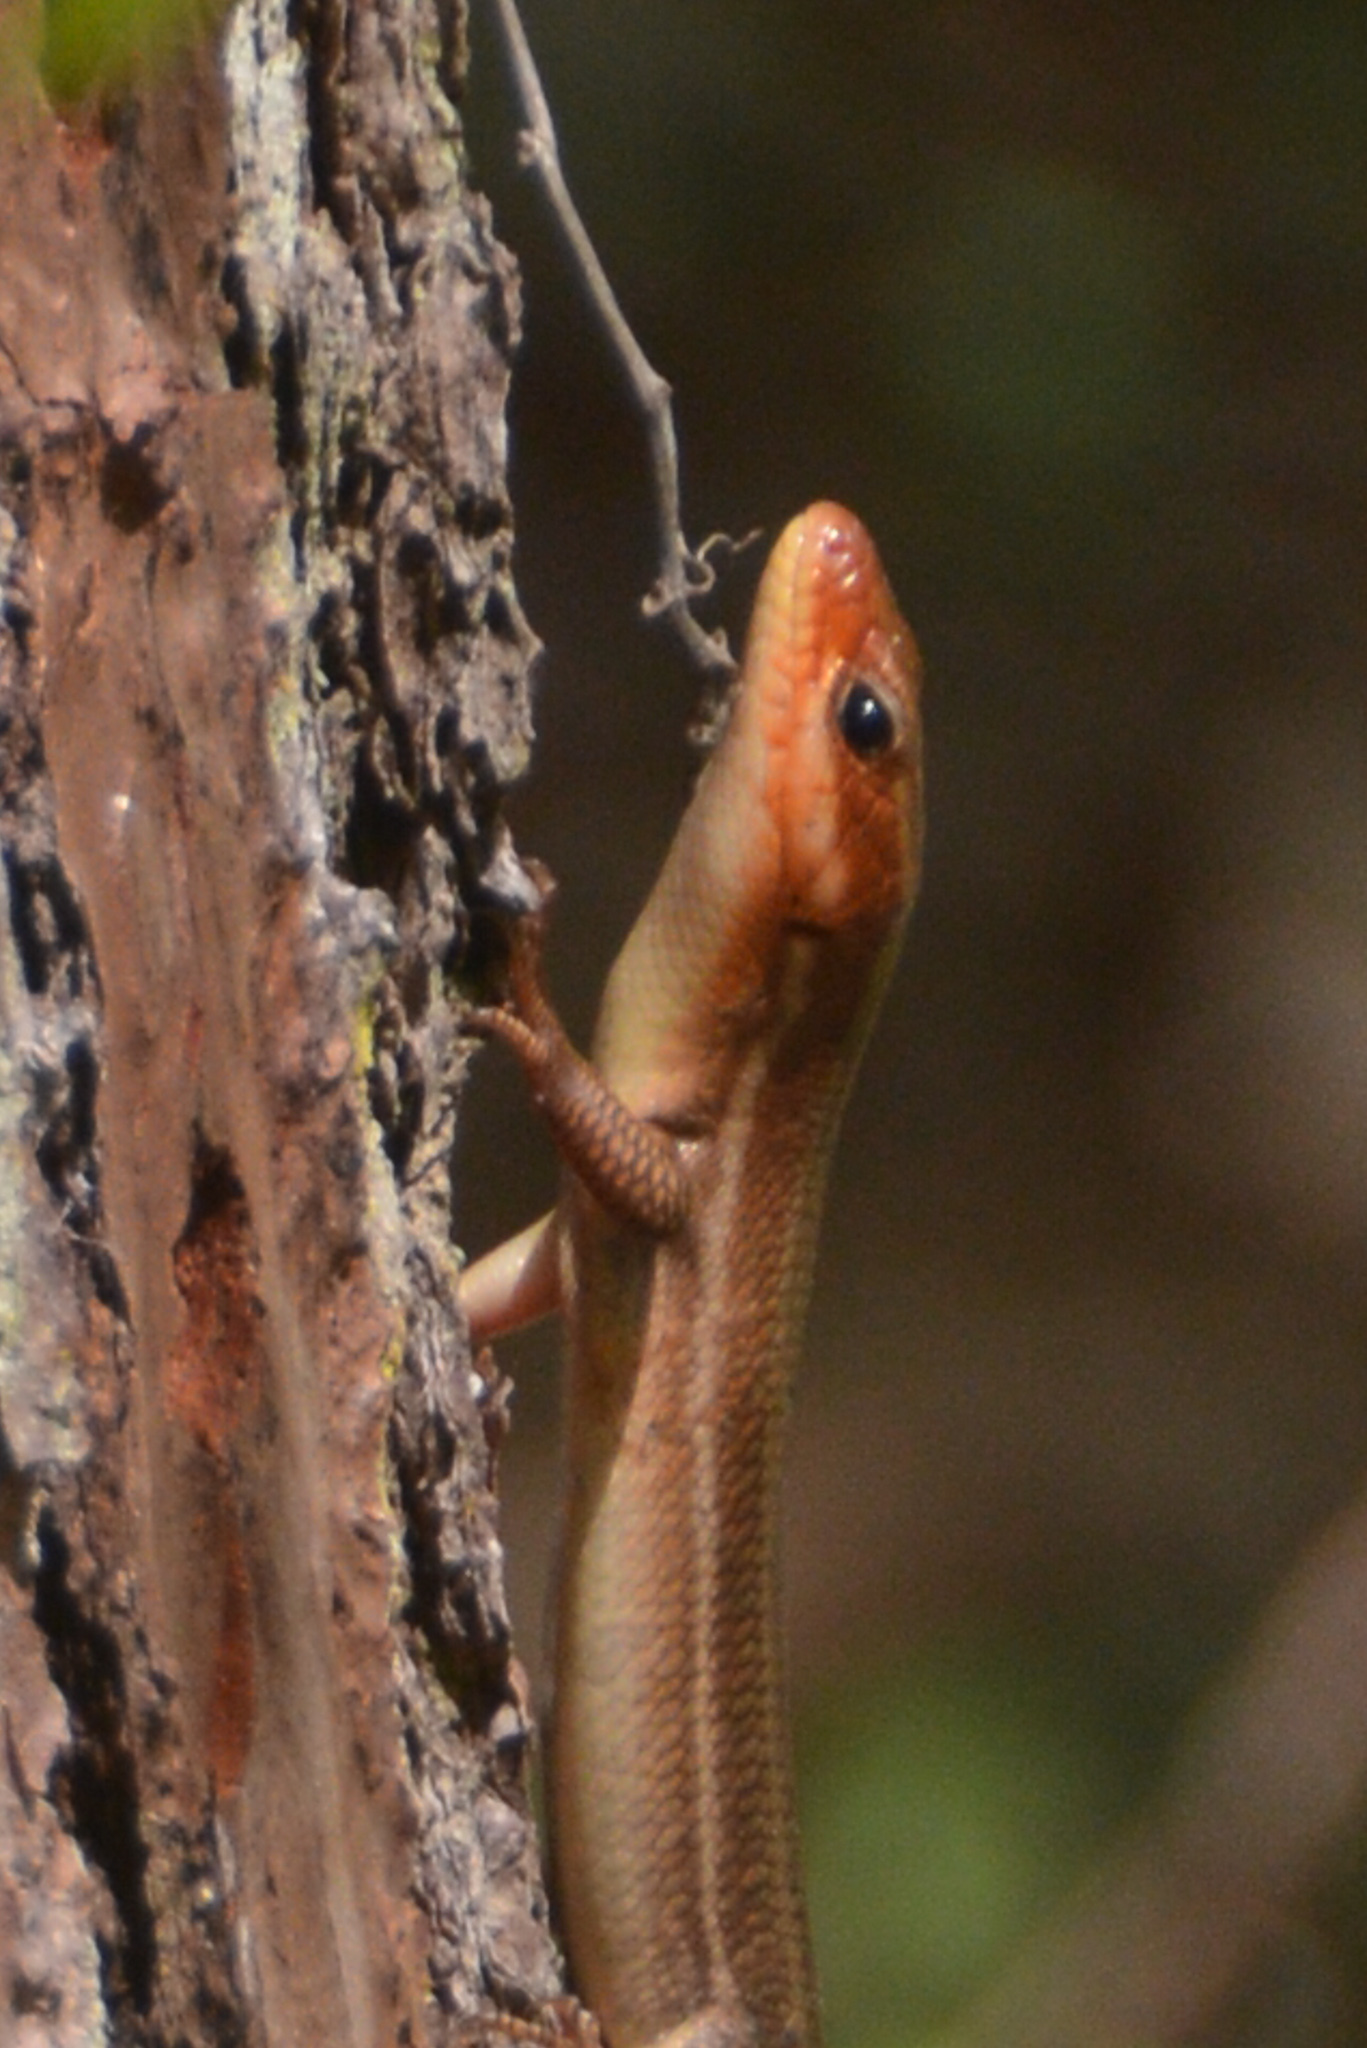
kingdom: Animalia
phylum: Chordata
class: Squamata
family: Scincidae
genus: Plestiodon
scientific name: Plestiodon laticeps
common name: Broadhead skink
